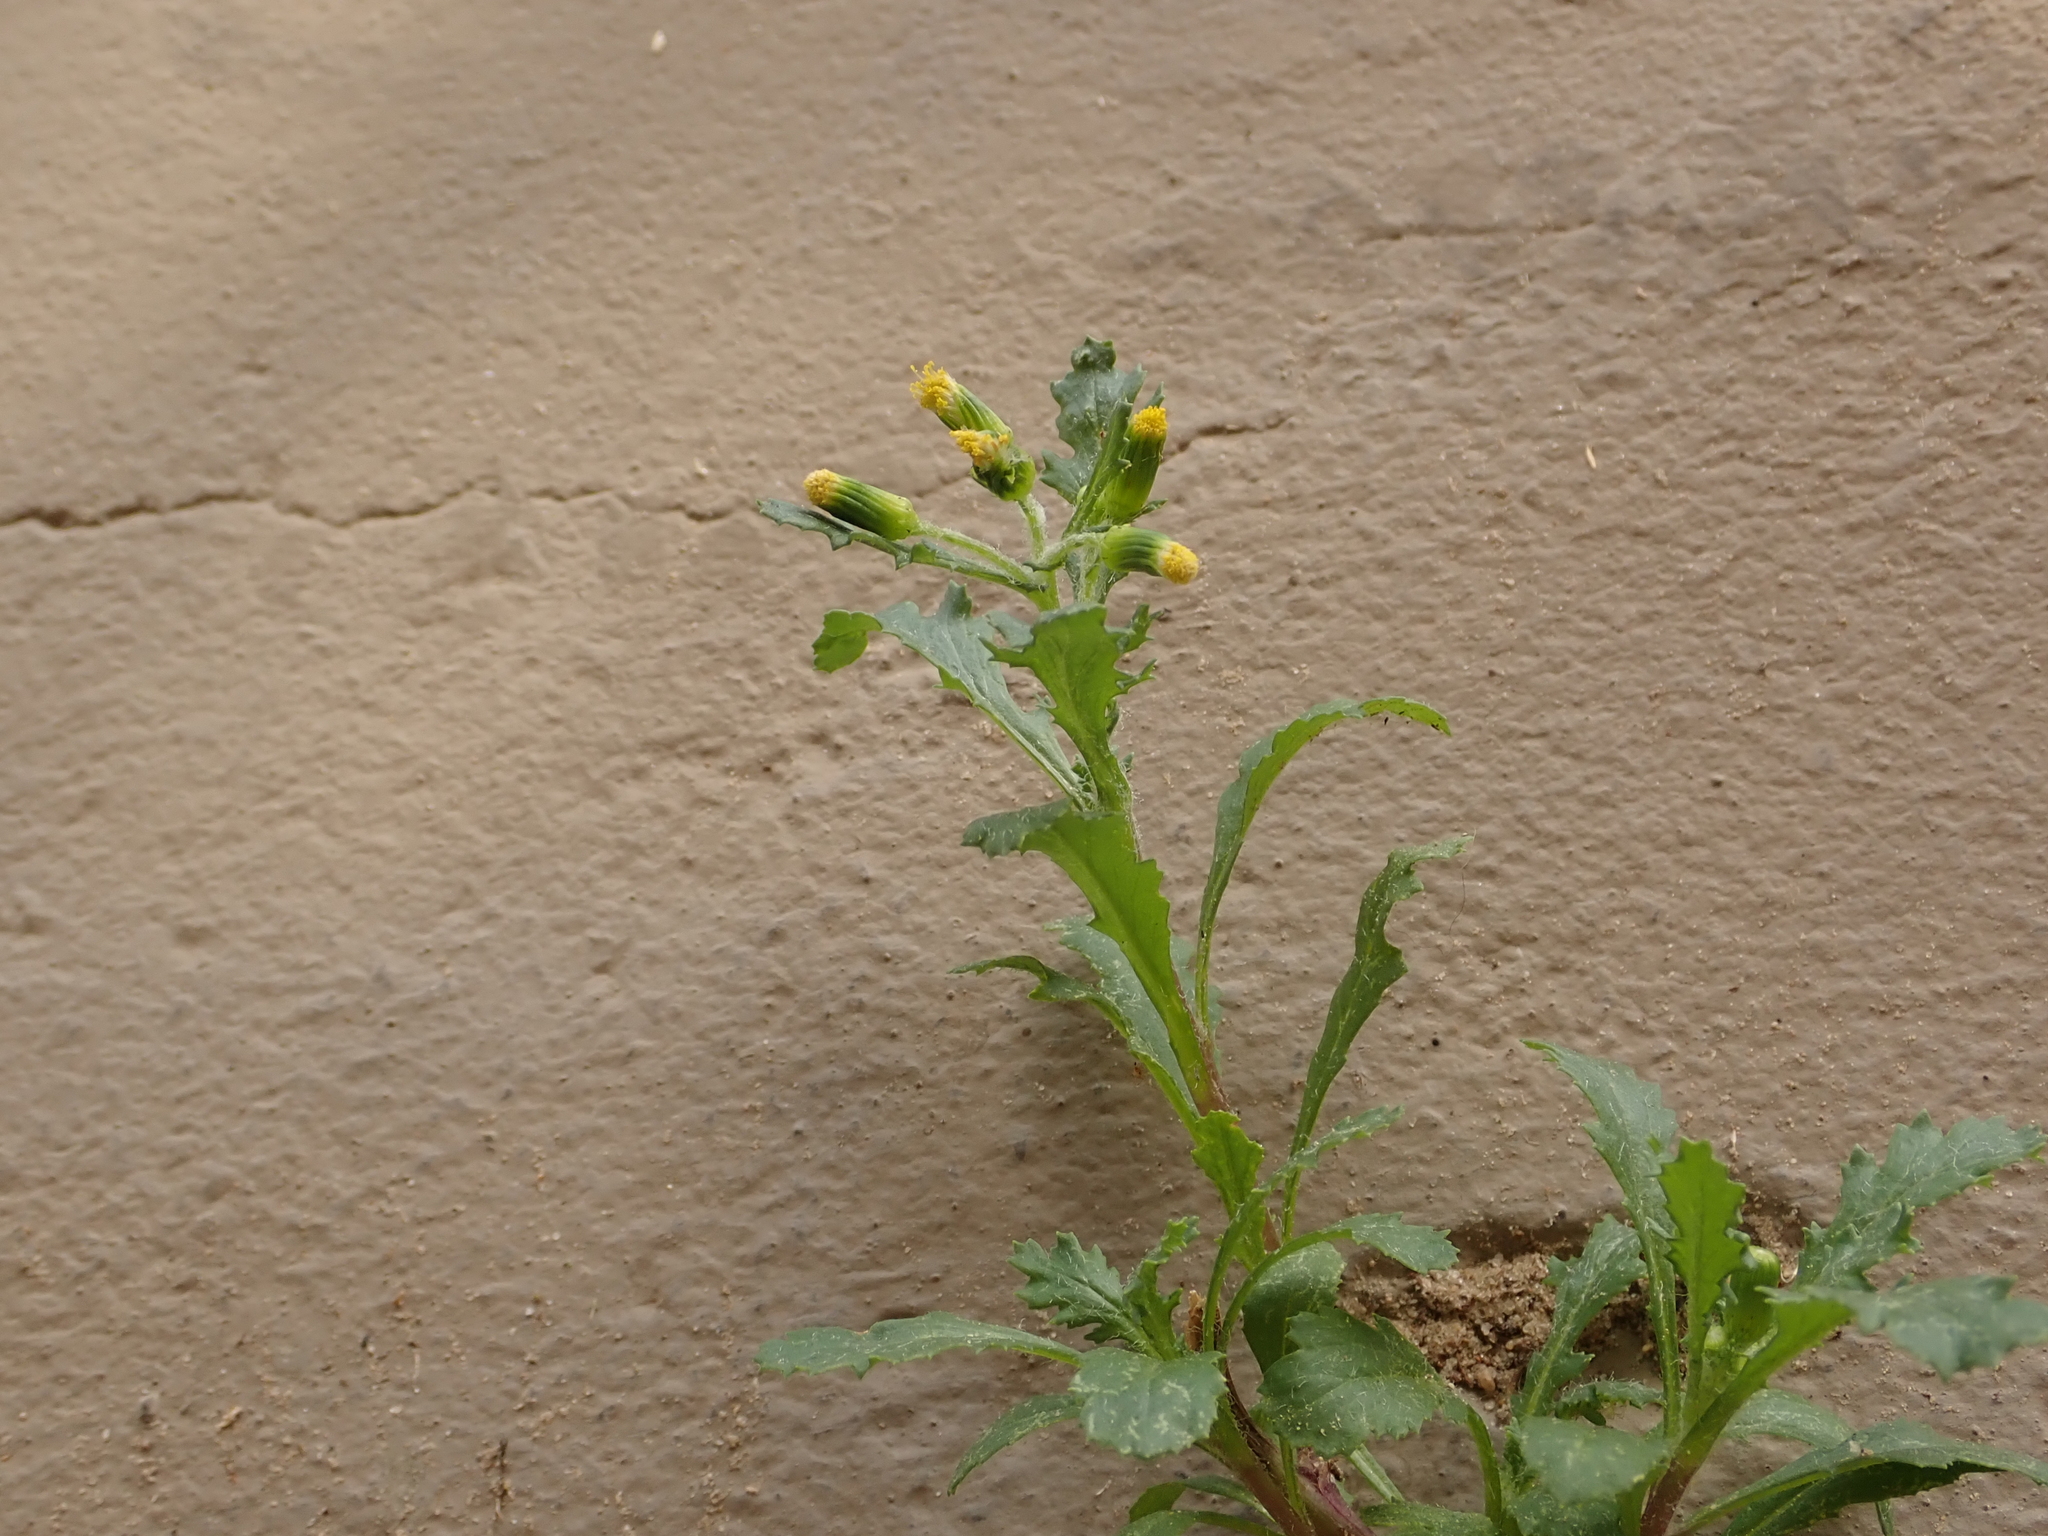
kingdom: Plantae
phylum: Tracheophyta
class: Magnoliopsida
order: Asterales
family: Asteraceae
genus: Senecio
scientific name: Senecio vulgaris
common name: Old-man-in-the-spring
